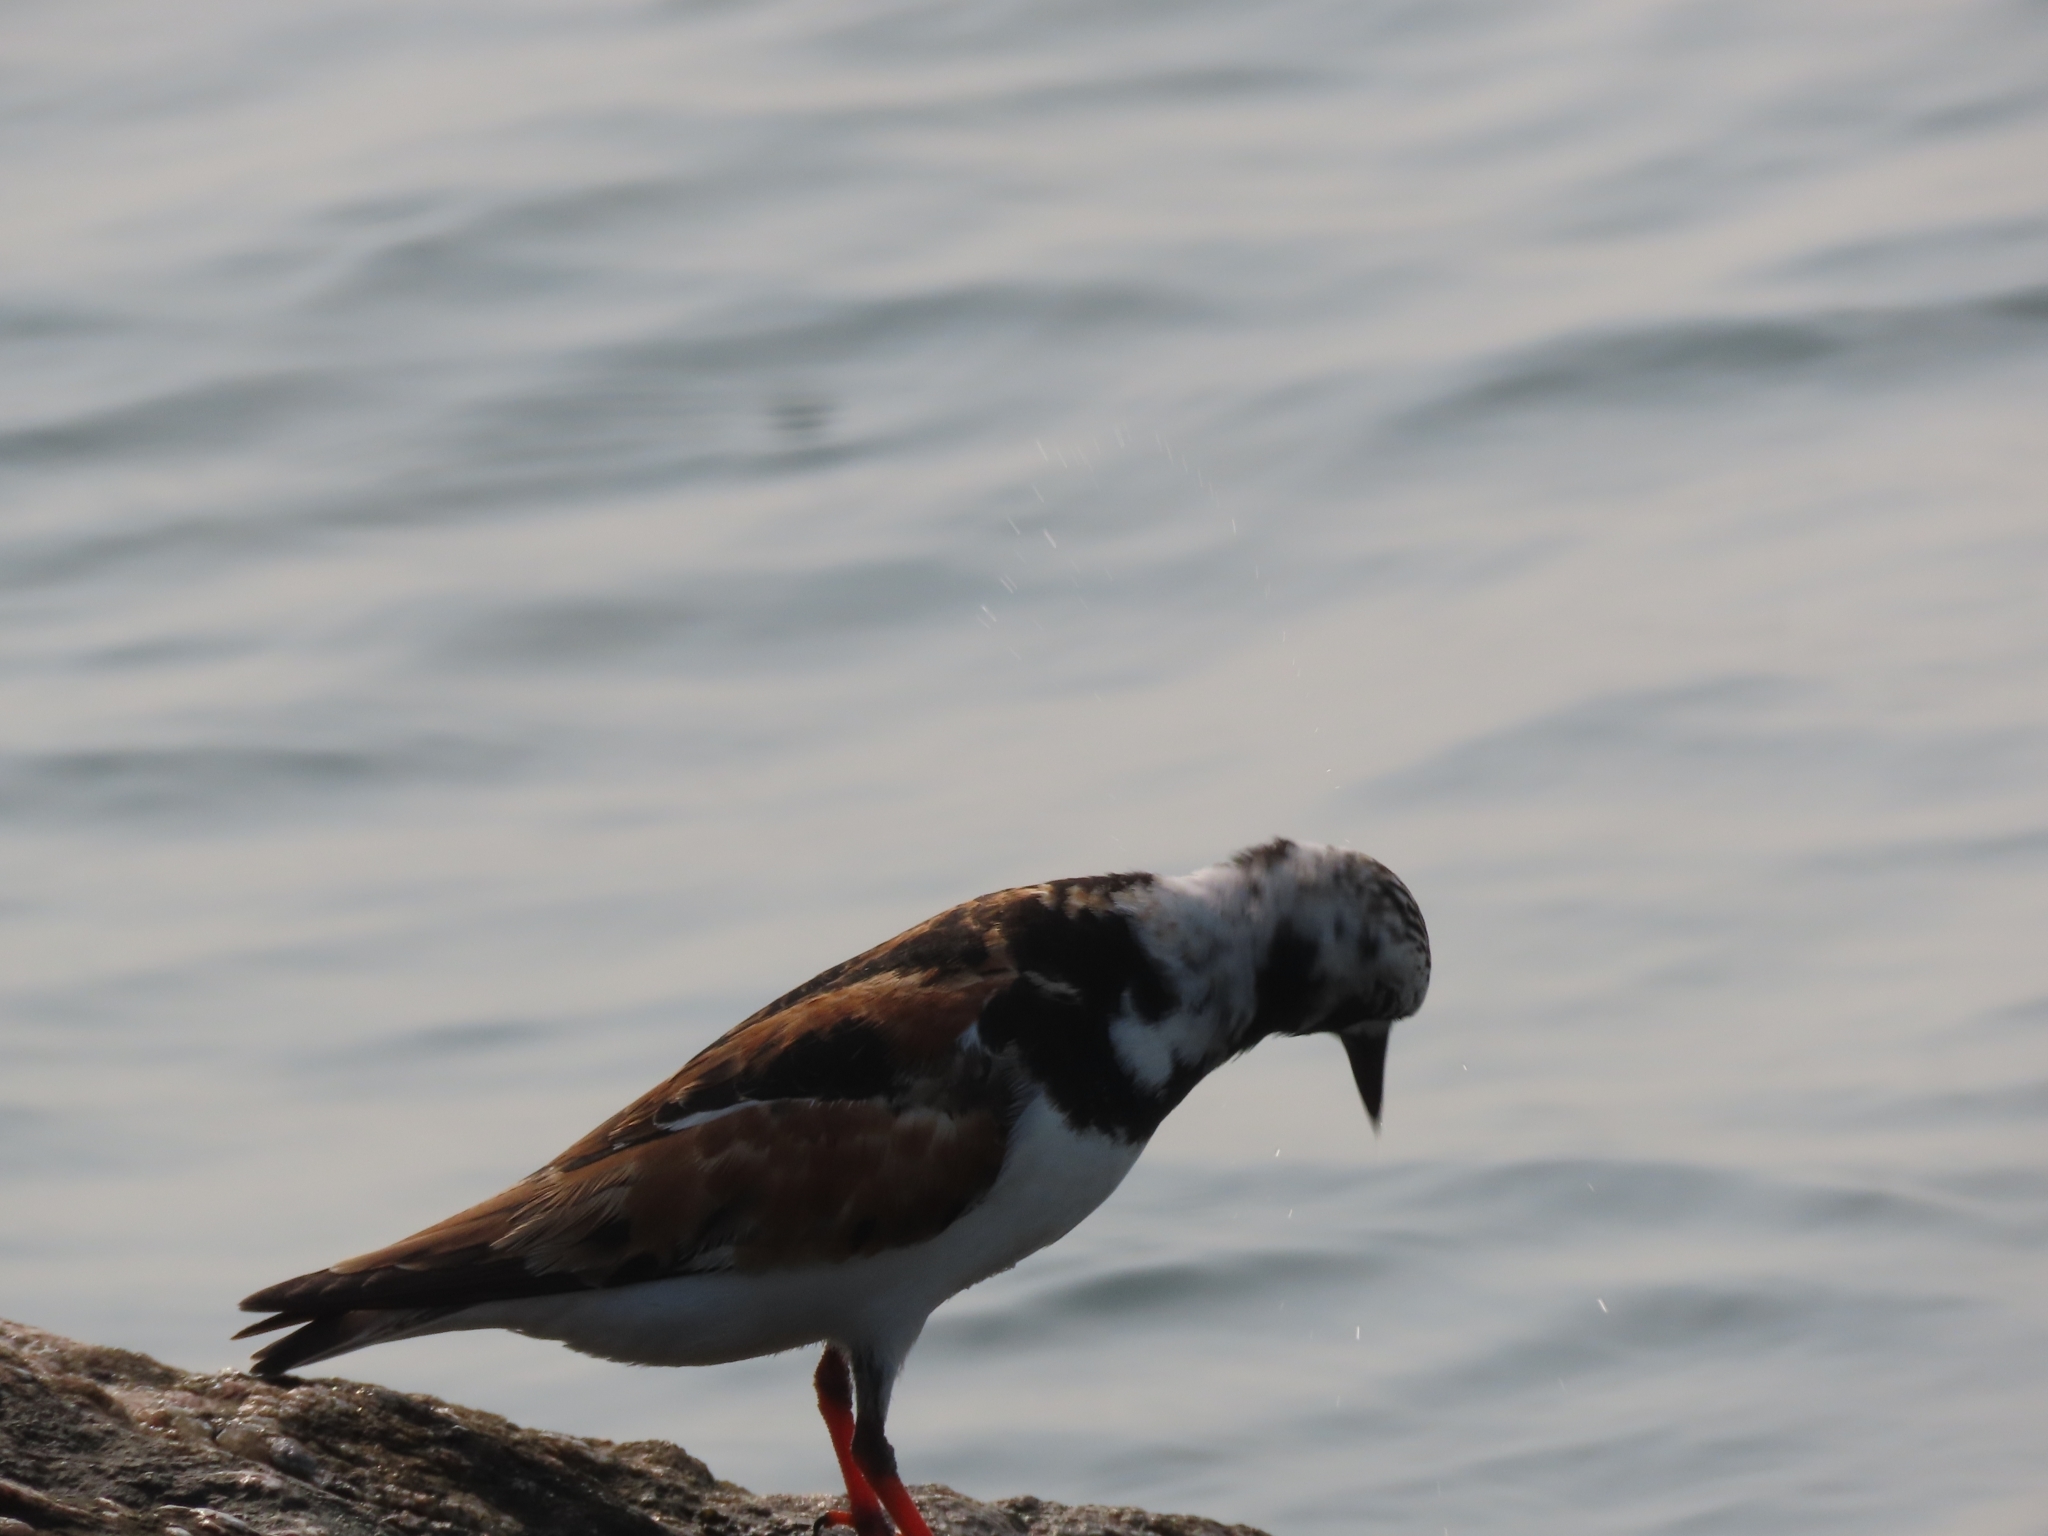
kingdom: Animalia
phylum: Chordata
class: Aves
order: Charadriiformes
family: Scolopacidae
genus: Arenaria
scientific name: Arenaria interpres
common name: Ruddy turnstone
